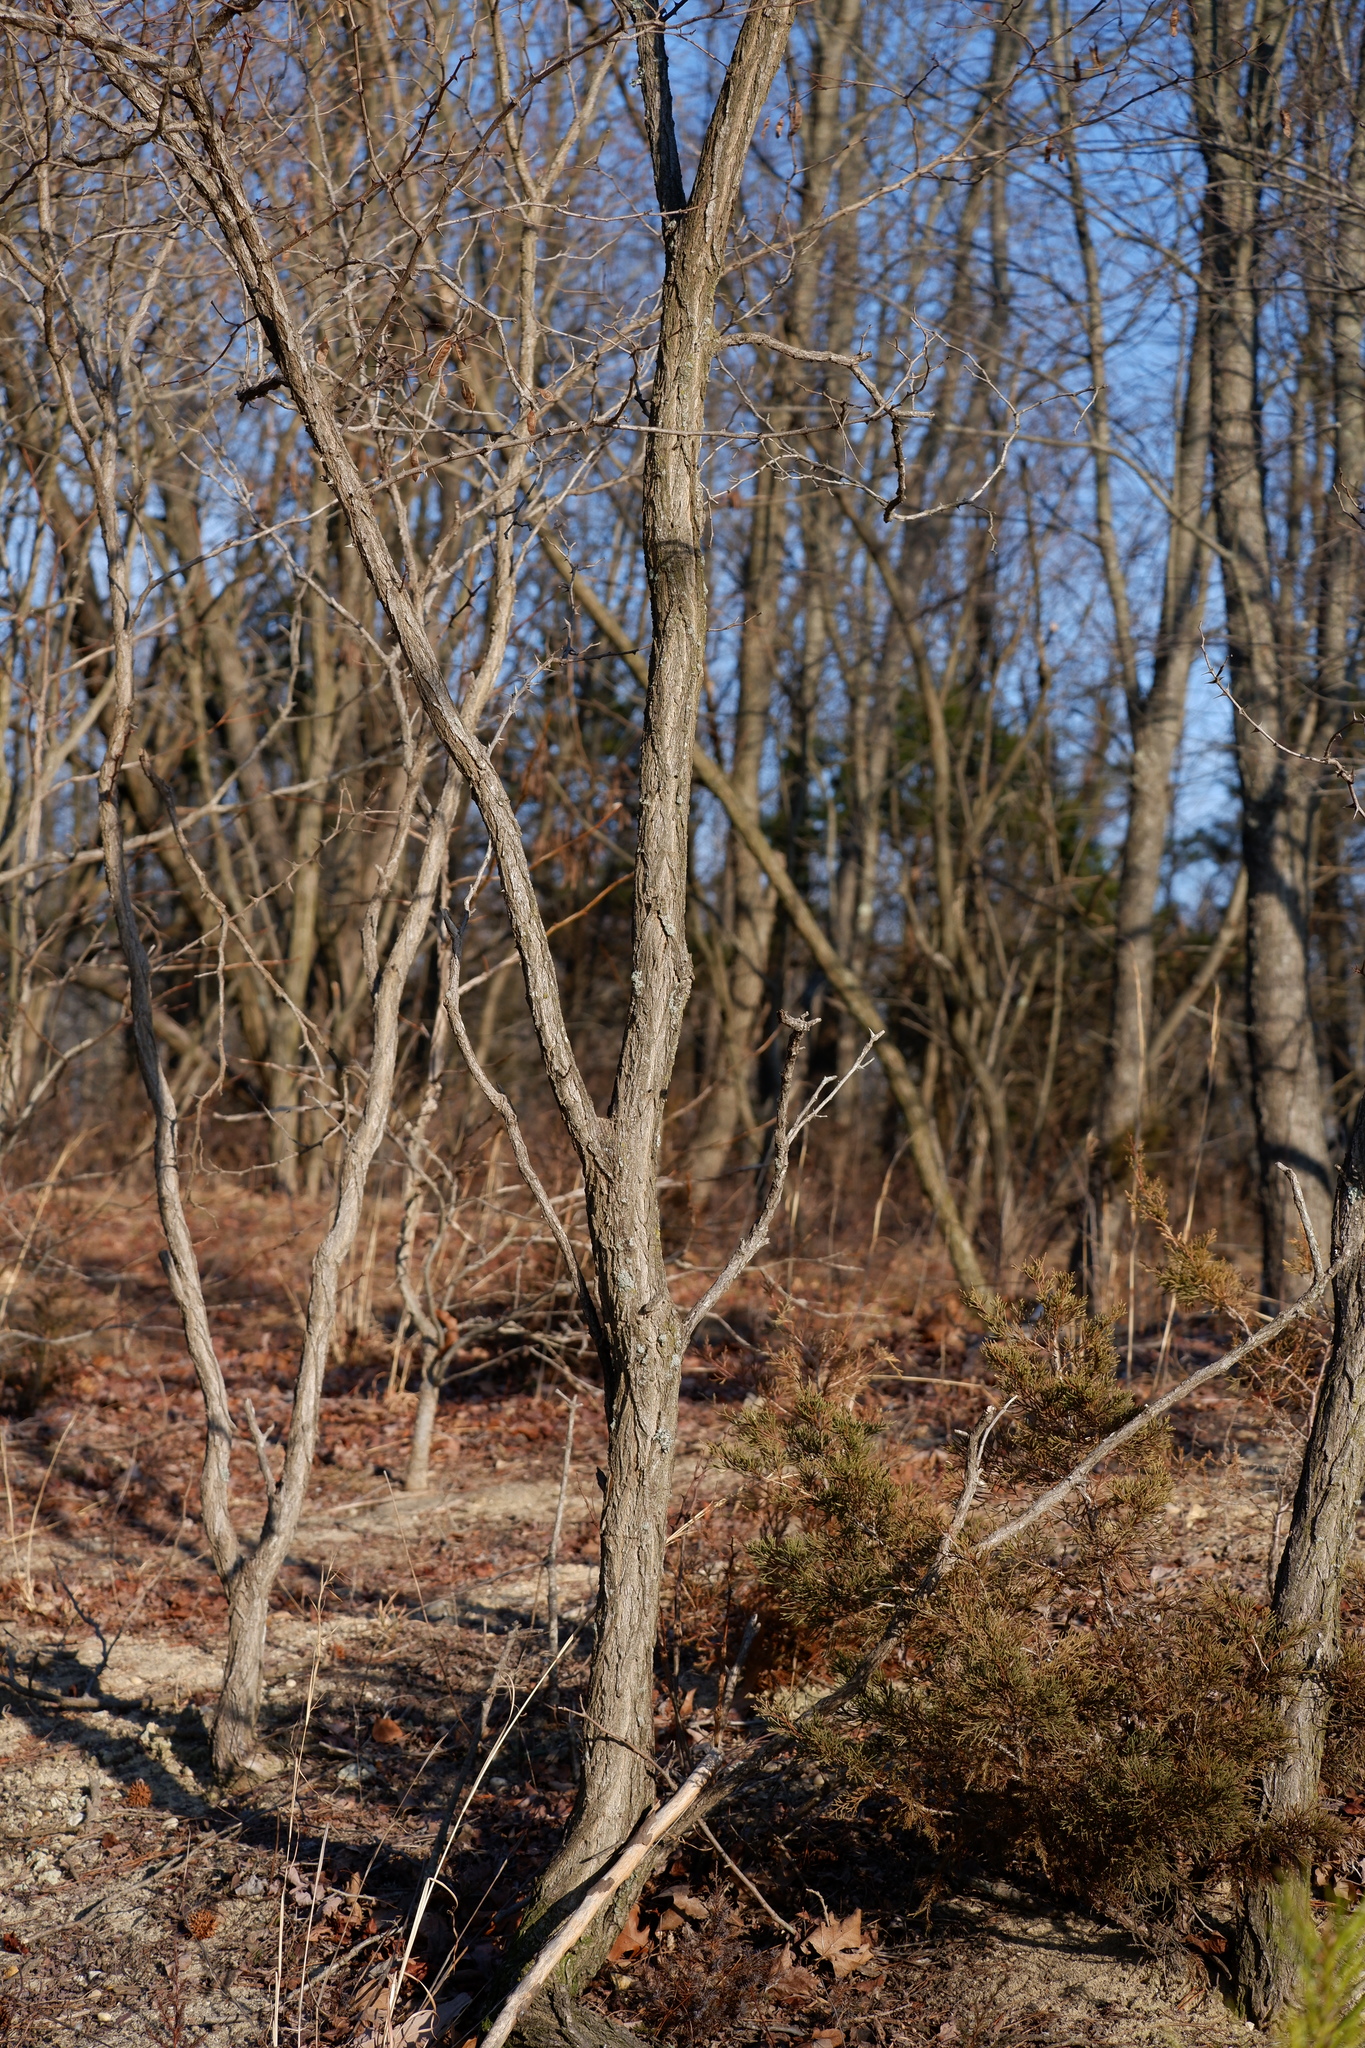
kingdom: Plantae
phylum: Tracheophyta
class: Magnoliopsida
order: Fabales
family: Fabaceae
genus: Robinia
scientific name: Robinia pseudoacacia
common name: Black locust
